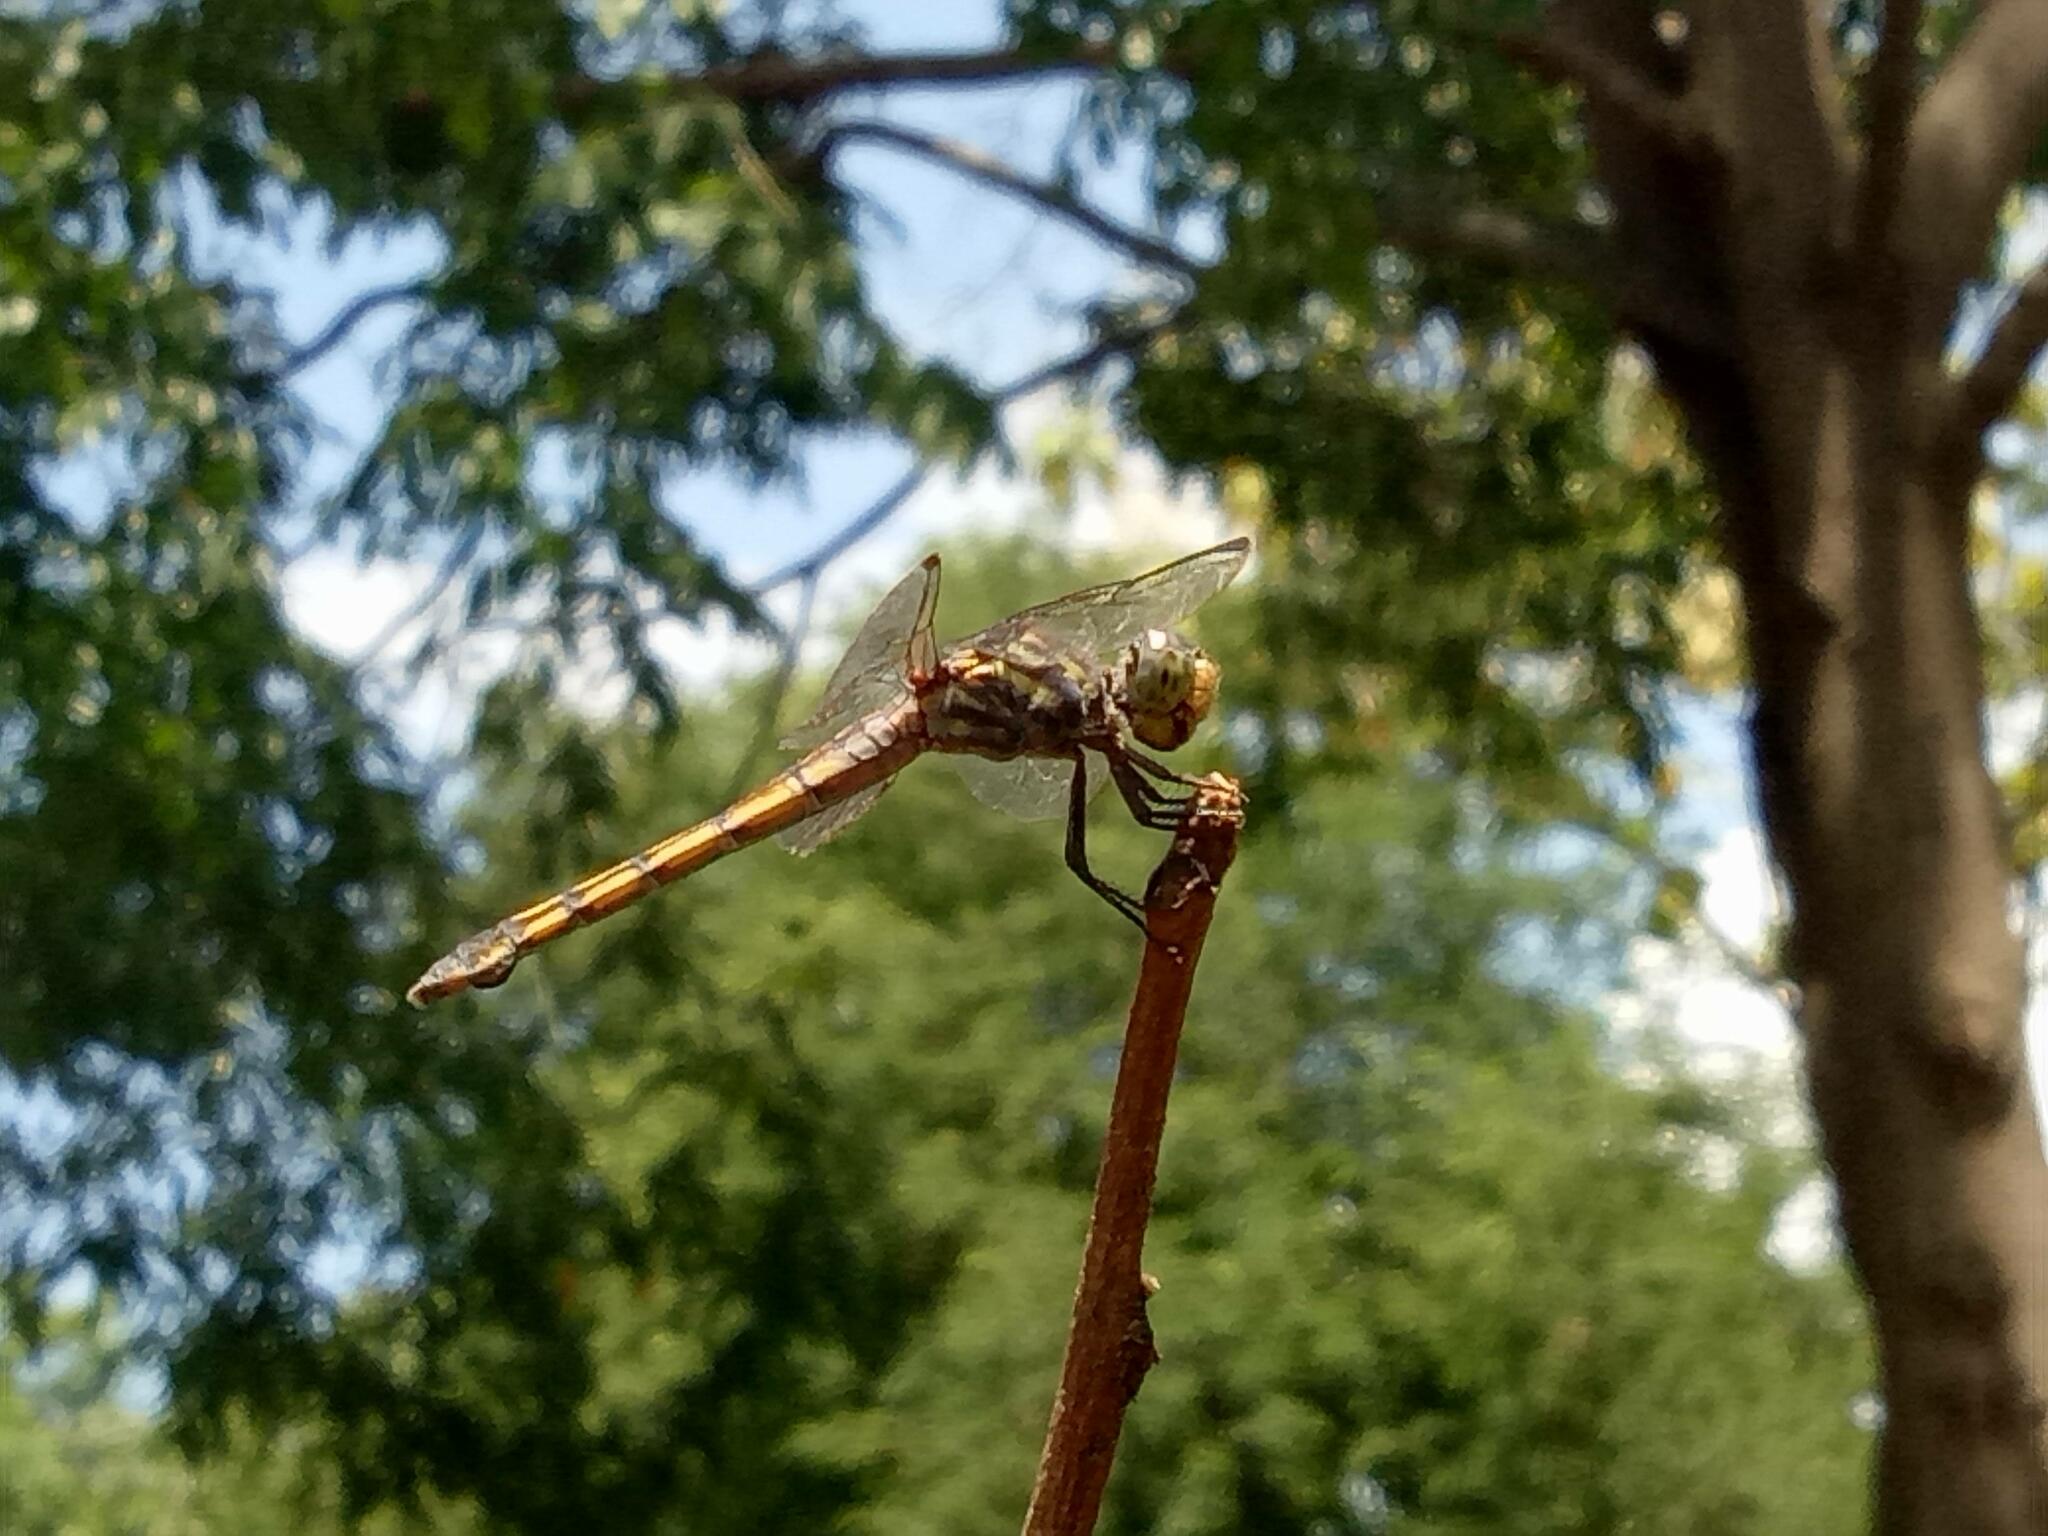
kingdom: Animalia
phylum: Arthropoda
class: Insecta
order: Odonata
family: Libellulidae
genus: Potamarcha
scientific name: Potamarcha congener
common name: Blue chaser
